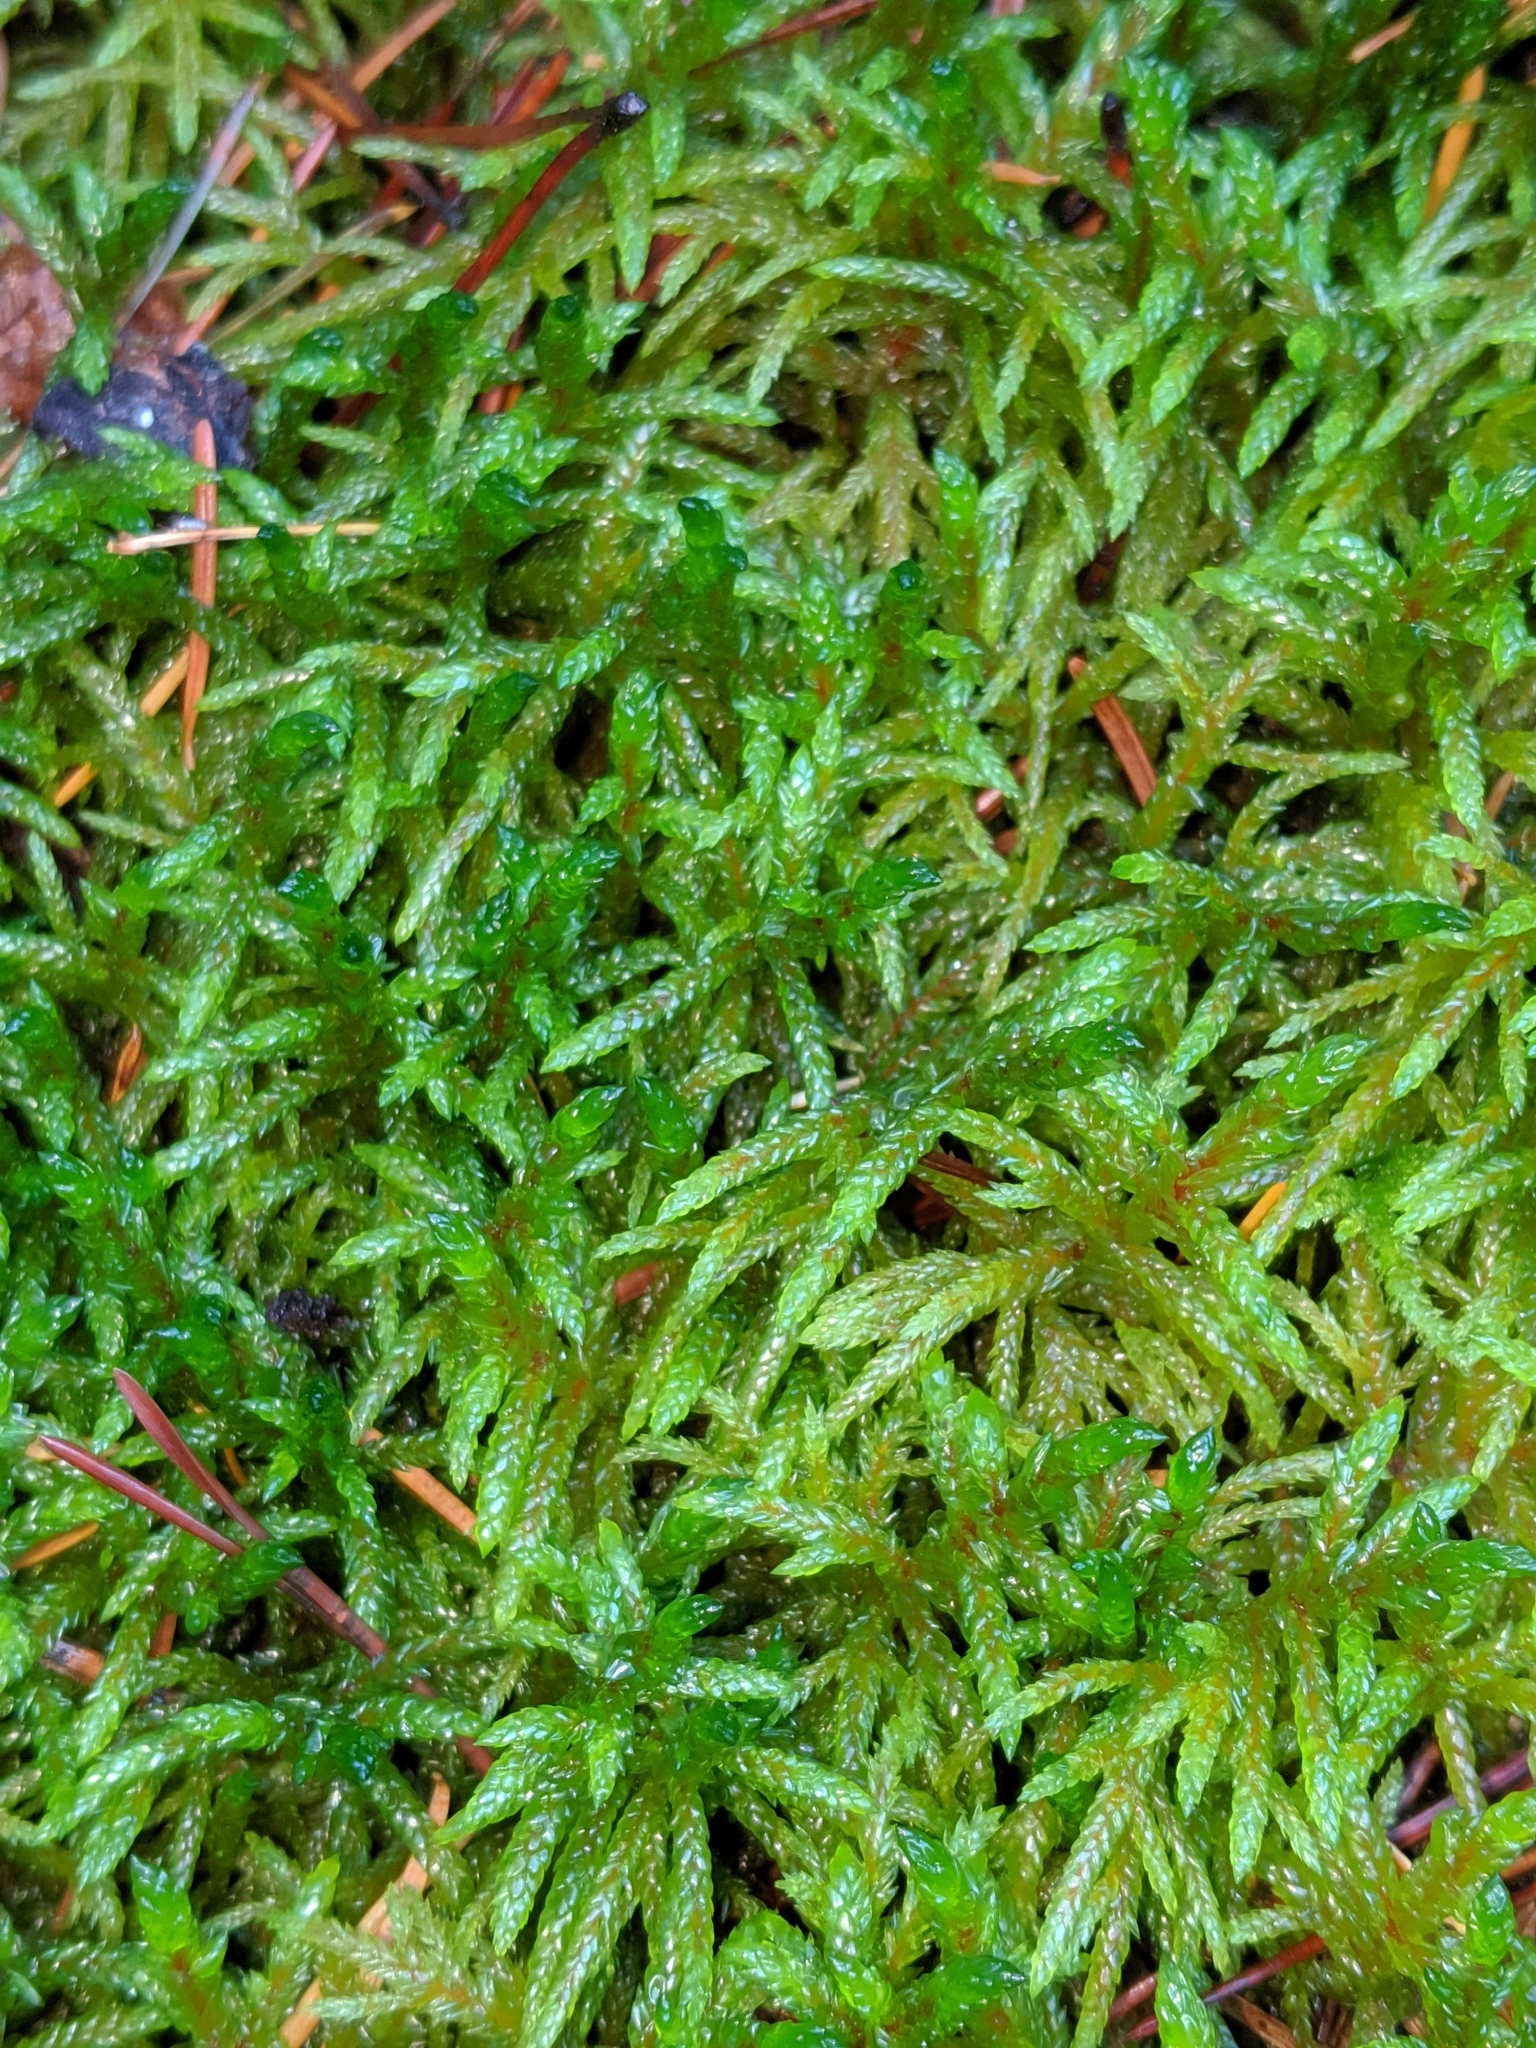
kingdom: Plantae
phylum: Bryophyta
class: Bryopsida
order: Hypnales
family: Hylocomiaceae
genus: Pleurozium
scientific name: Pleurozium schreberi
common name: Red-stemmed feather moss
